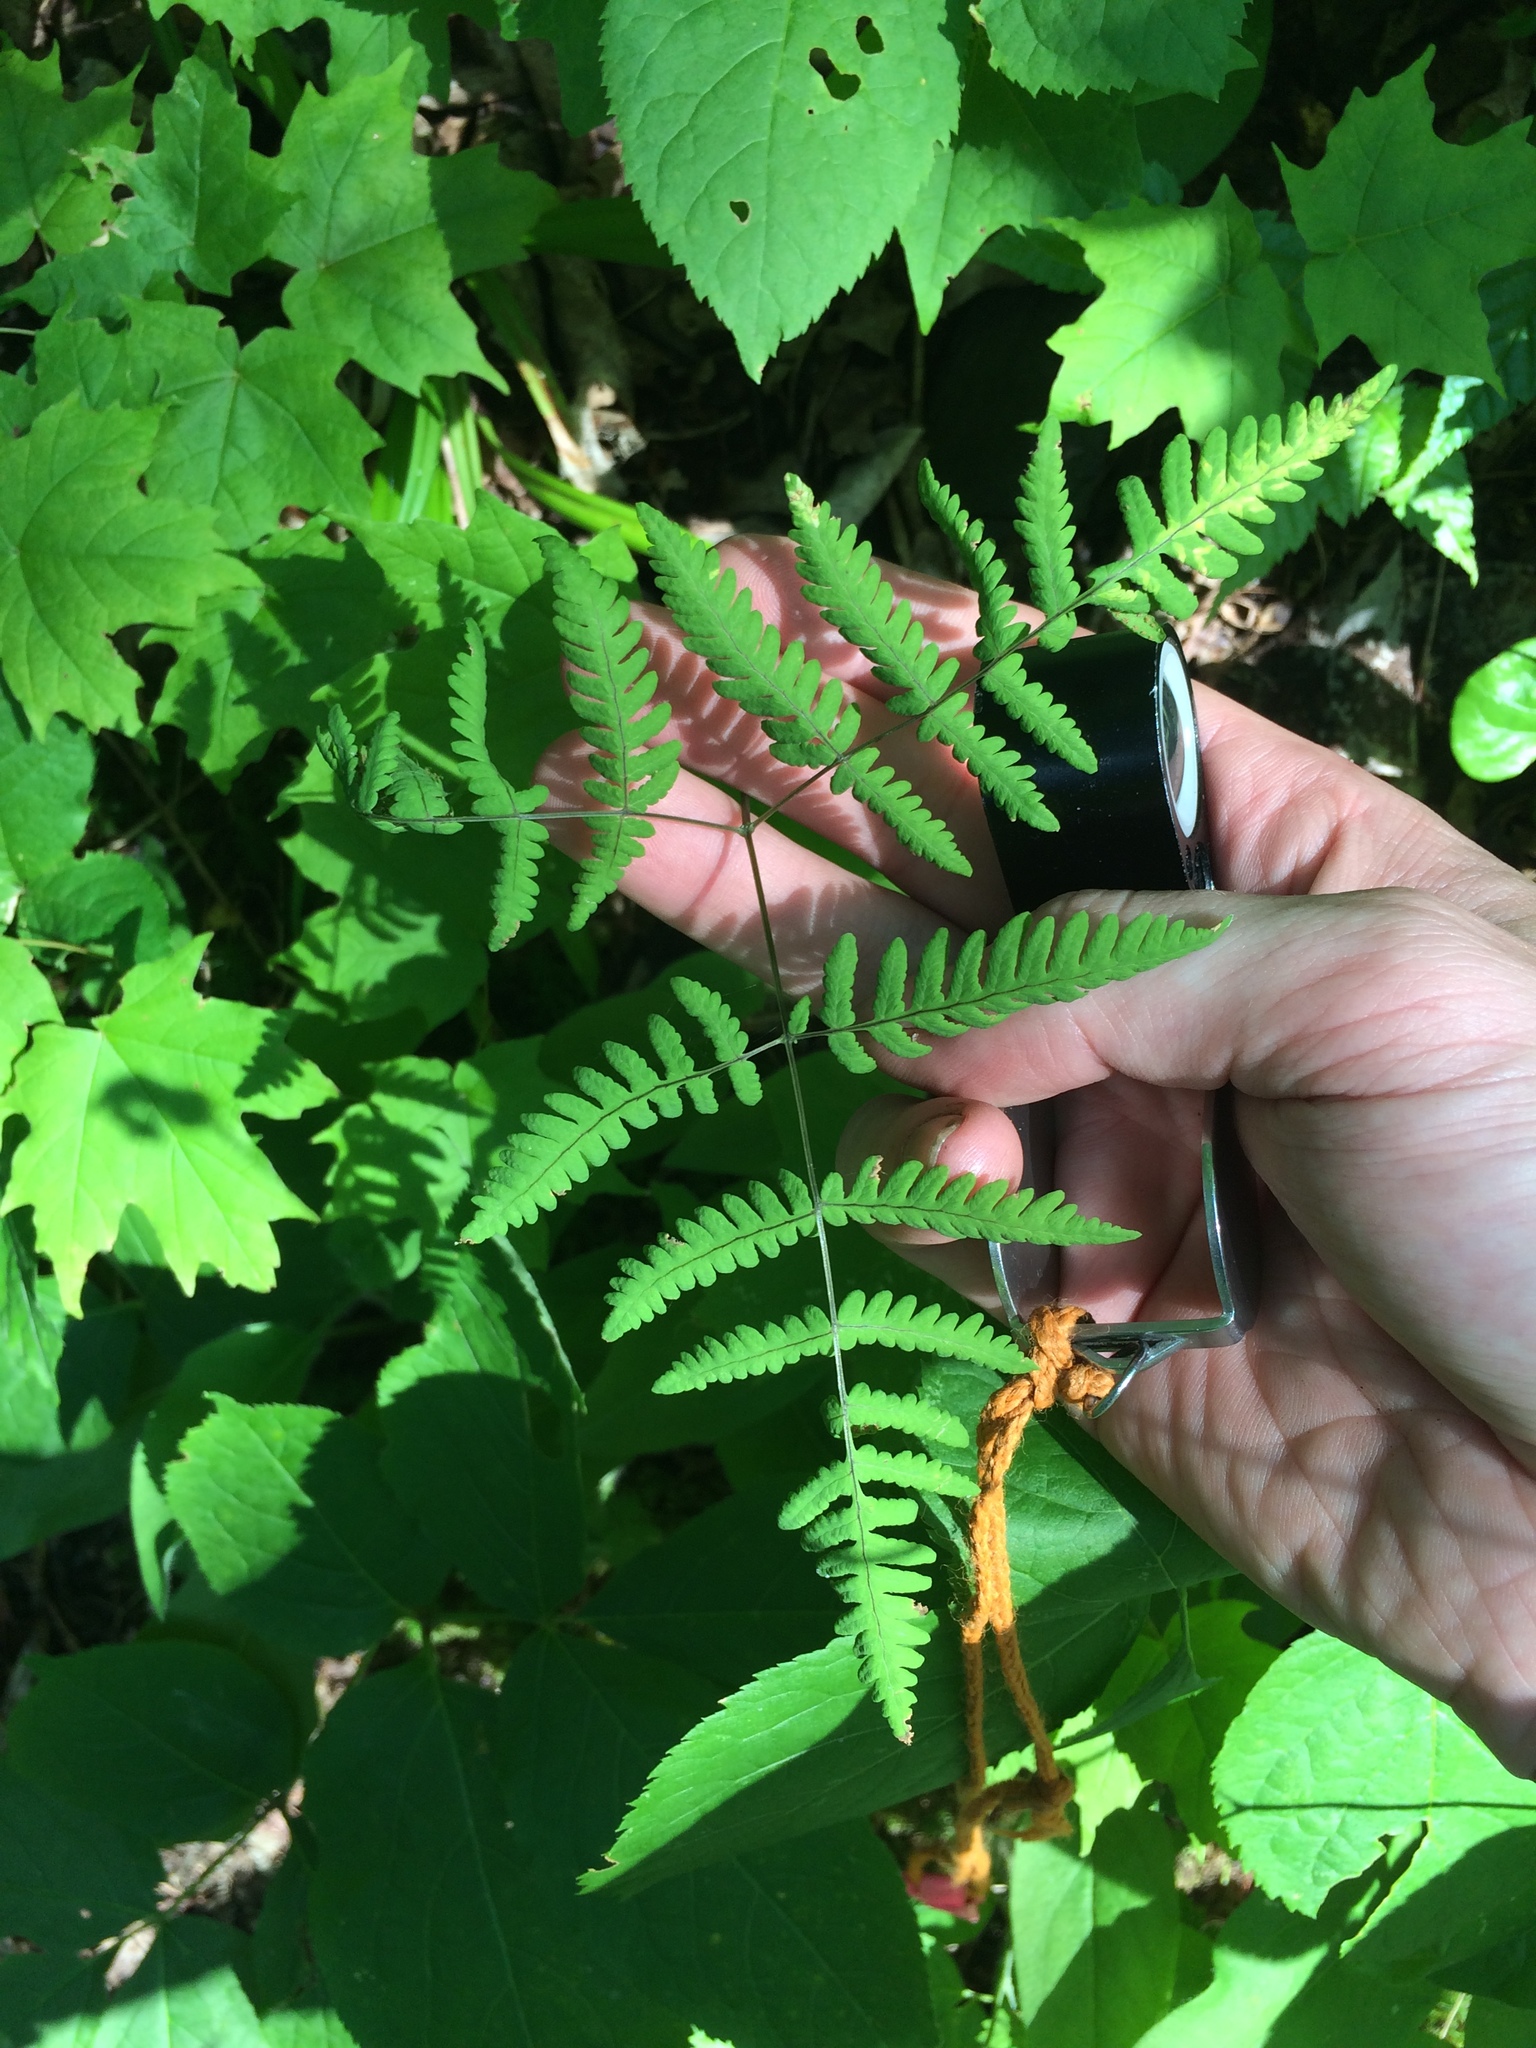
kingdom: Plantae
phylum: Tracheophyta
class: Polypodiopsida
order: Polypodiales
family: Cystopteridaceae
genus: Gymnocarpium
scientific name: Gymnocarpium dryopteris
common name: Oak fern
